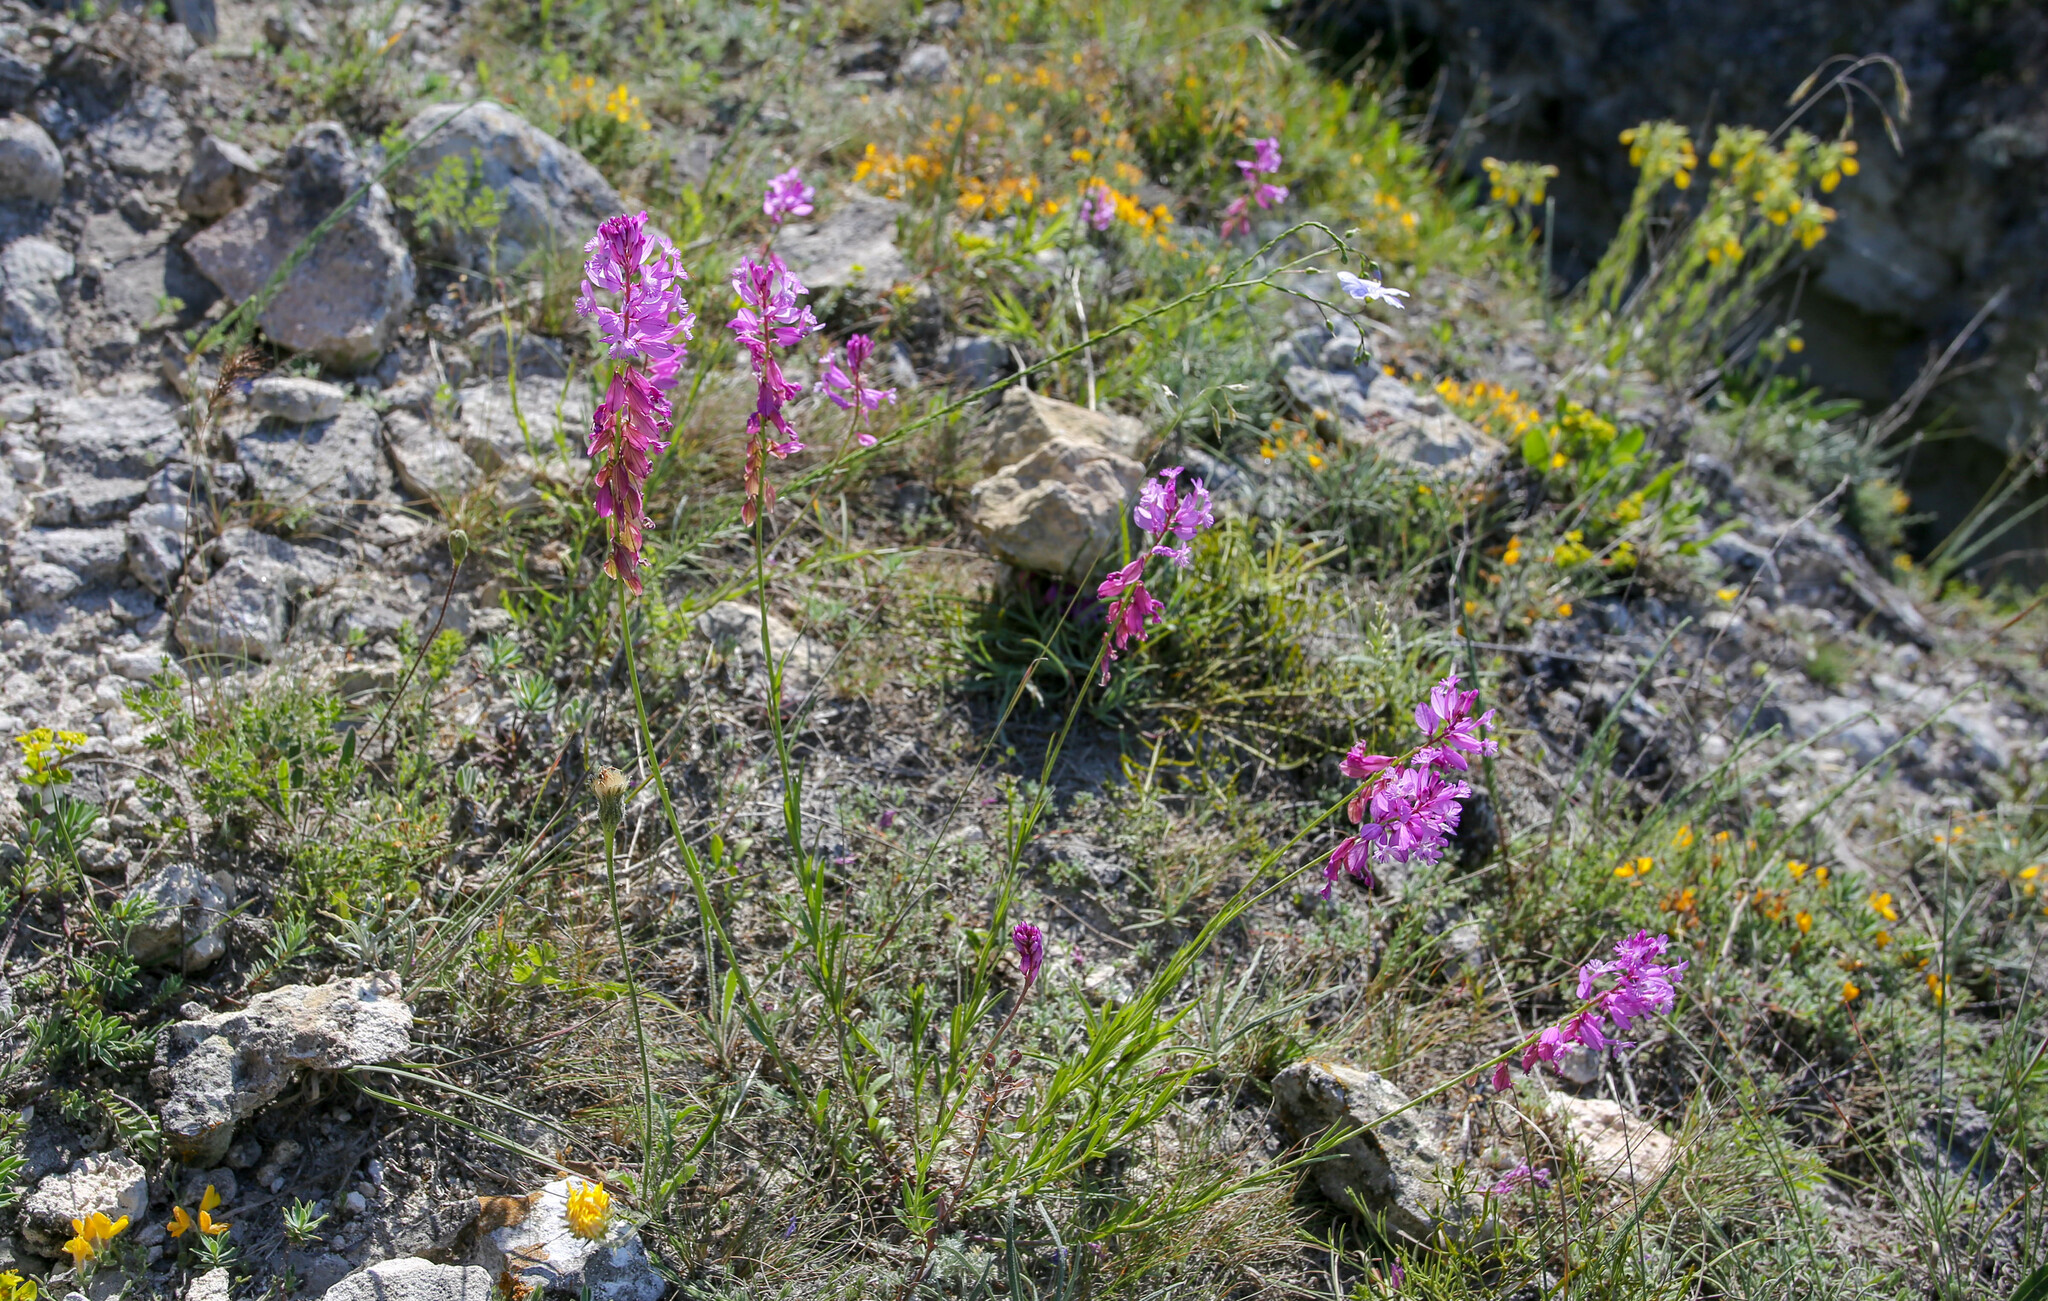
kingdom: Plantae
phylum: Tracheophyta
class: Magnoliopsida
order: Fabales
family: Polygalaceae
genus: Polygala
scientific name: Polygala major
